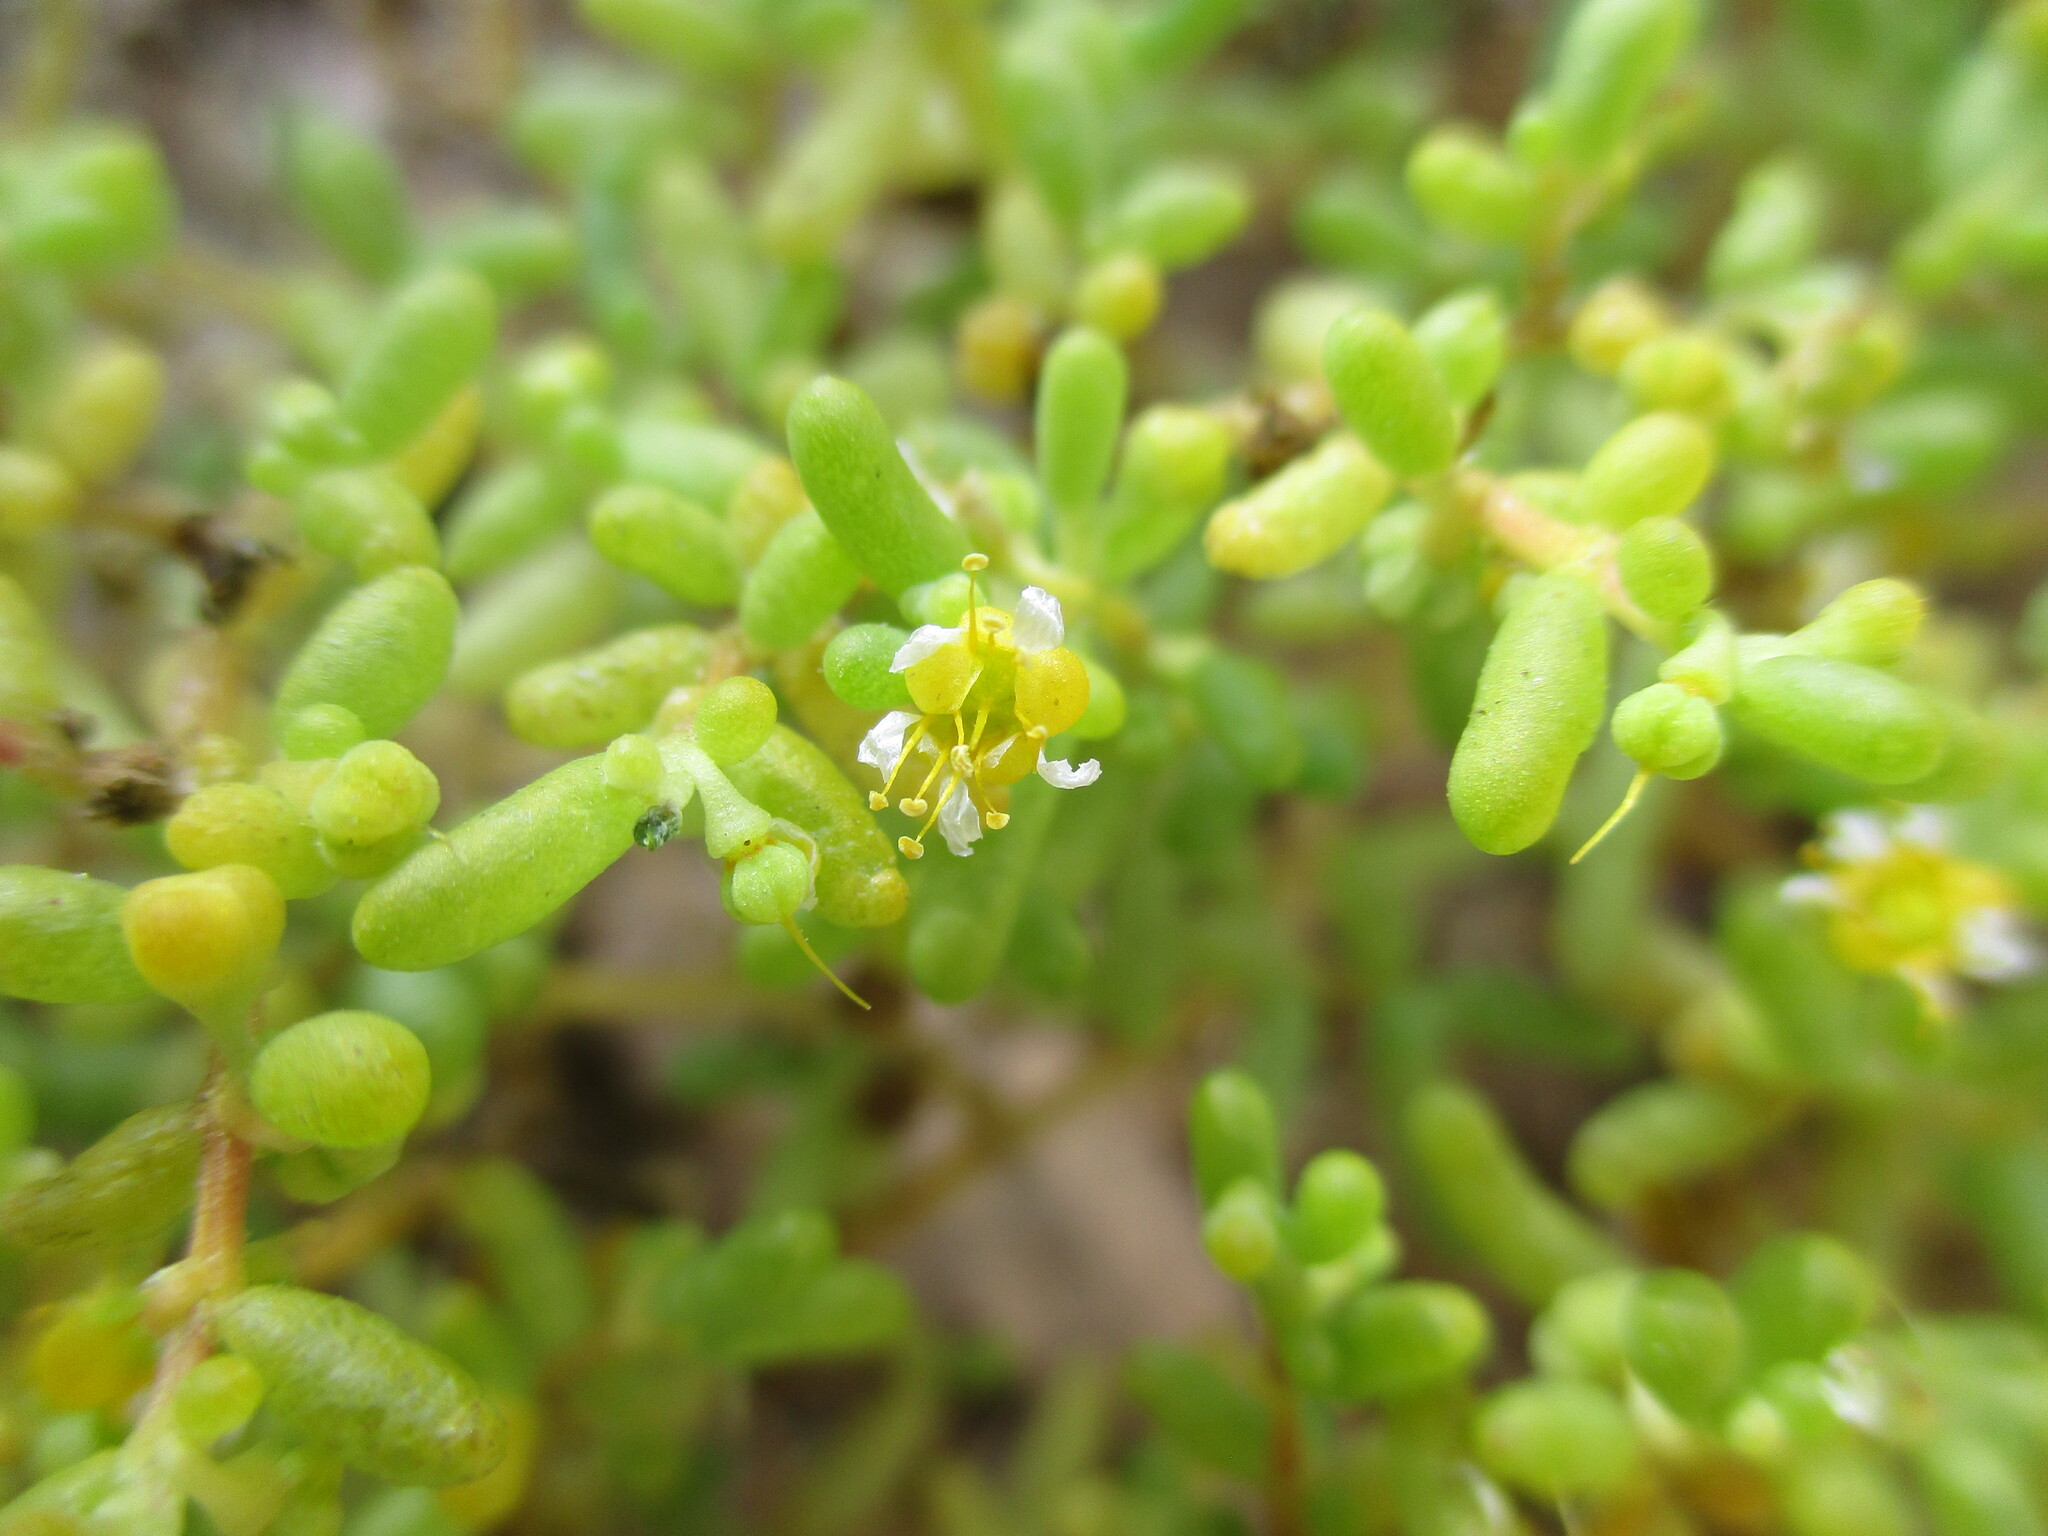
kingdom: Plantae
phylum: Tracheophyta
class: Magnoliopsida
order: Zygophyllales
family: Zygophyllaceae
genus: Tetraena
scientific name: Tetraena simplex
